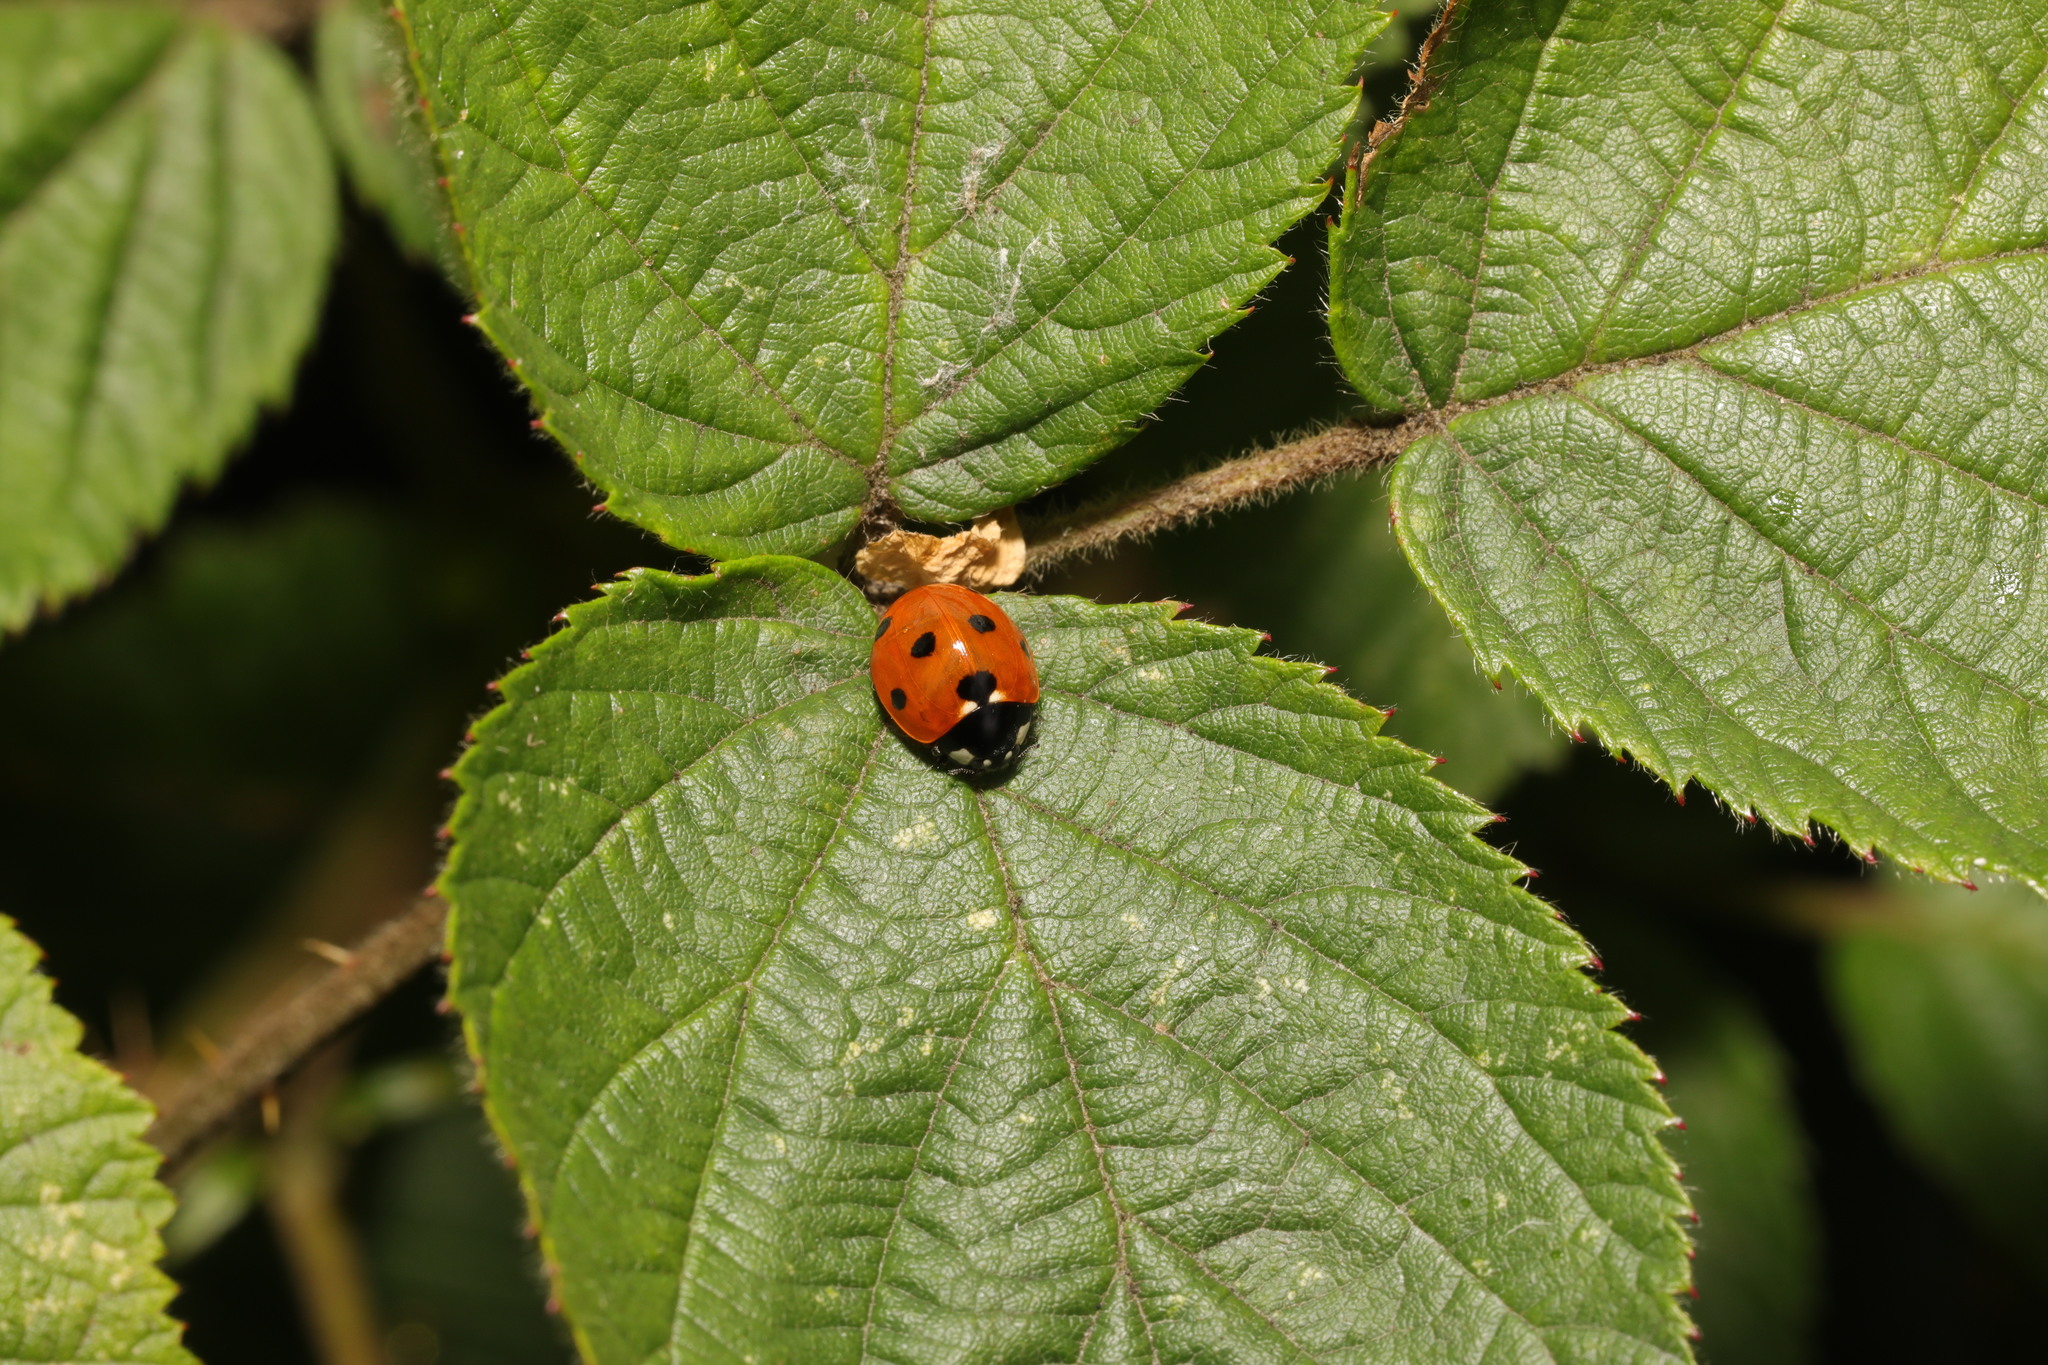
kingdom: Animalia
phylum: Arthropoda
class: Insecta
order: Coleoptera
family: Coccinellidae
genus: Coccinella
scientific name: Coccinella septempunctata
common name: Sevenspotted lady beetle
